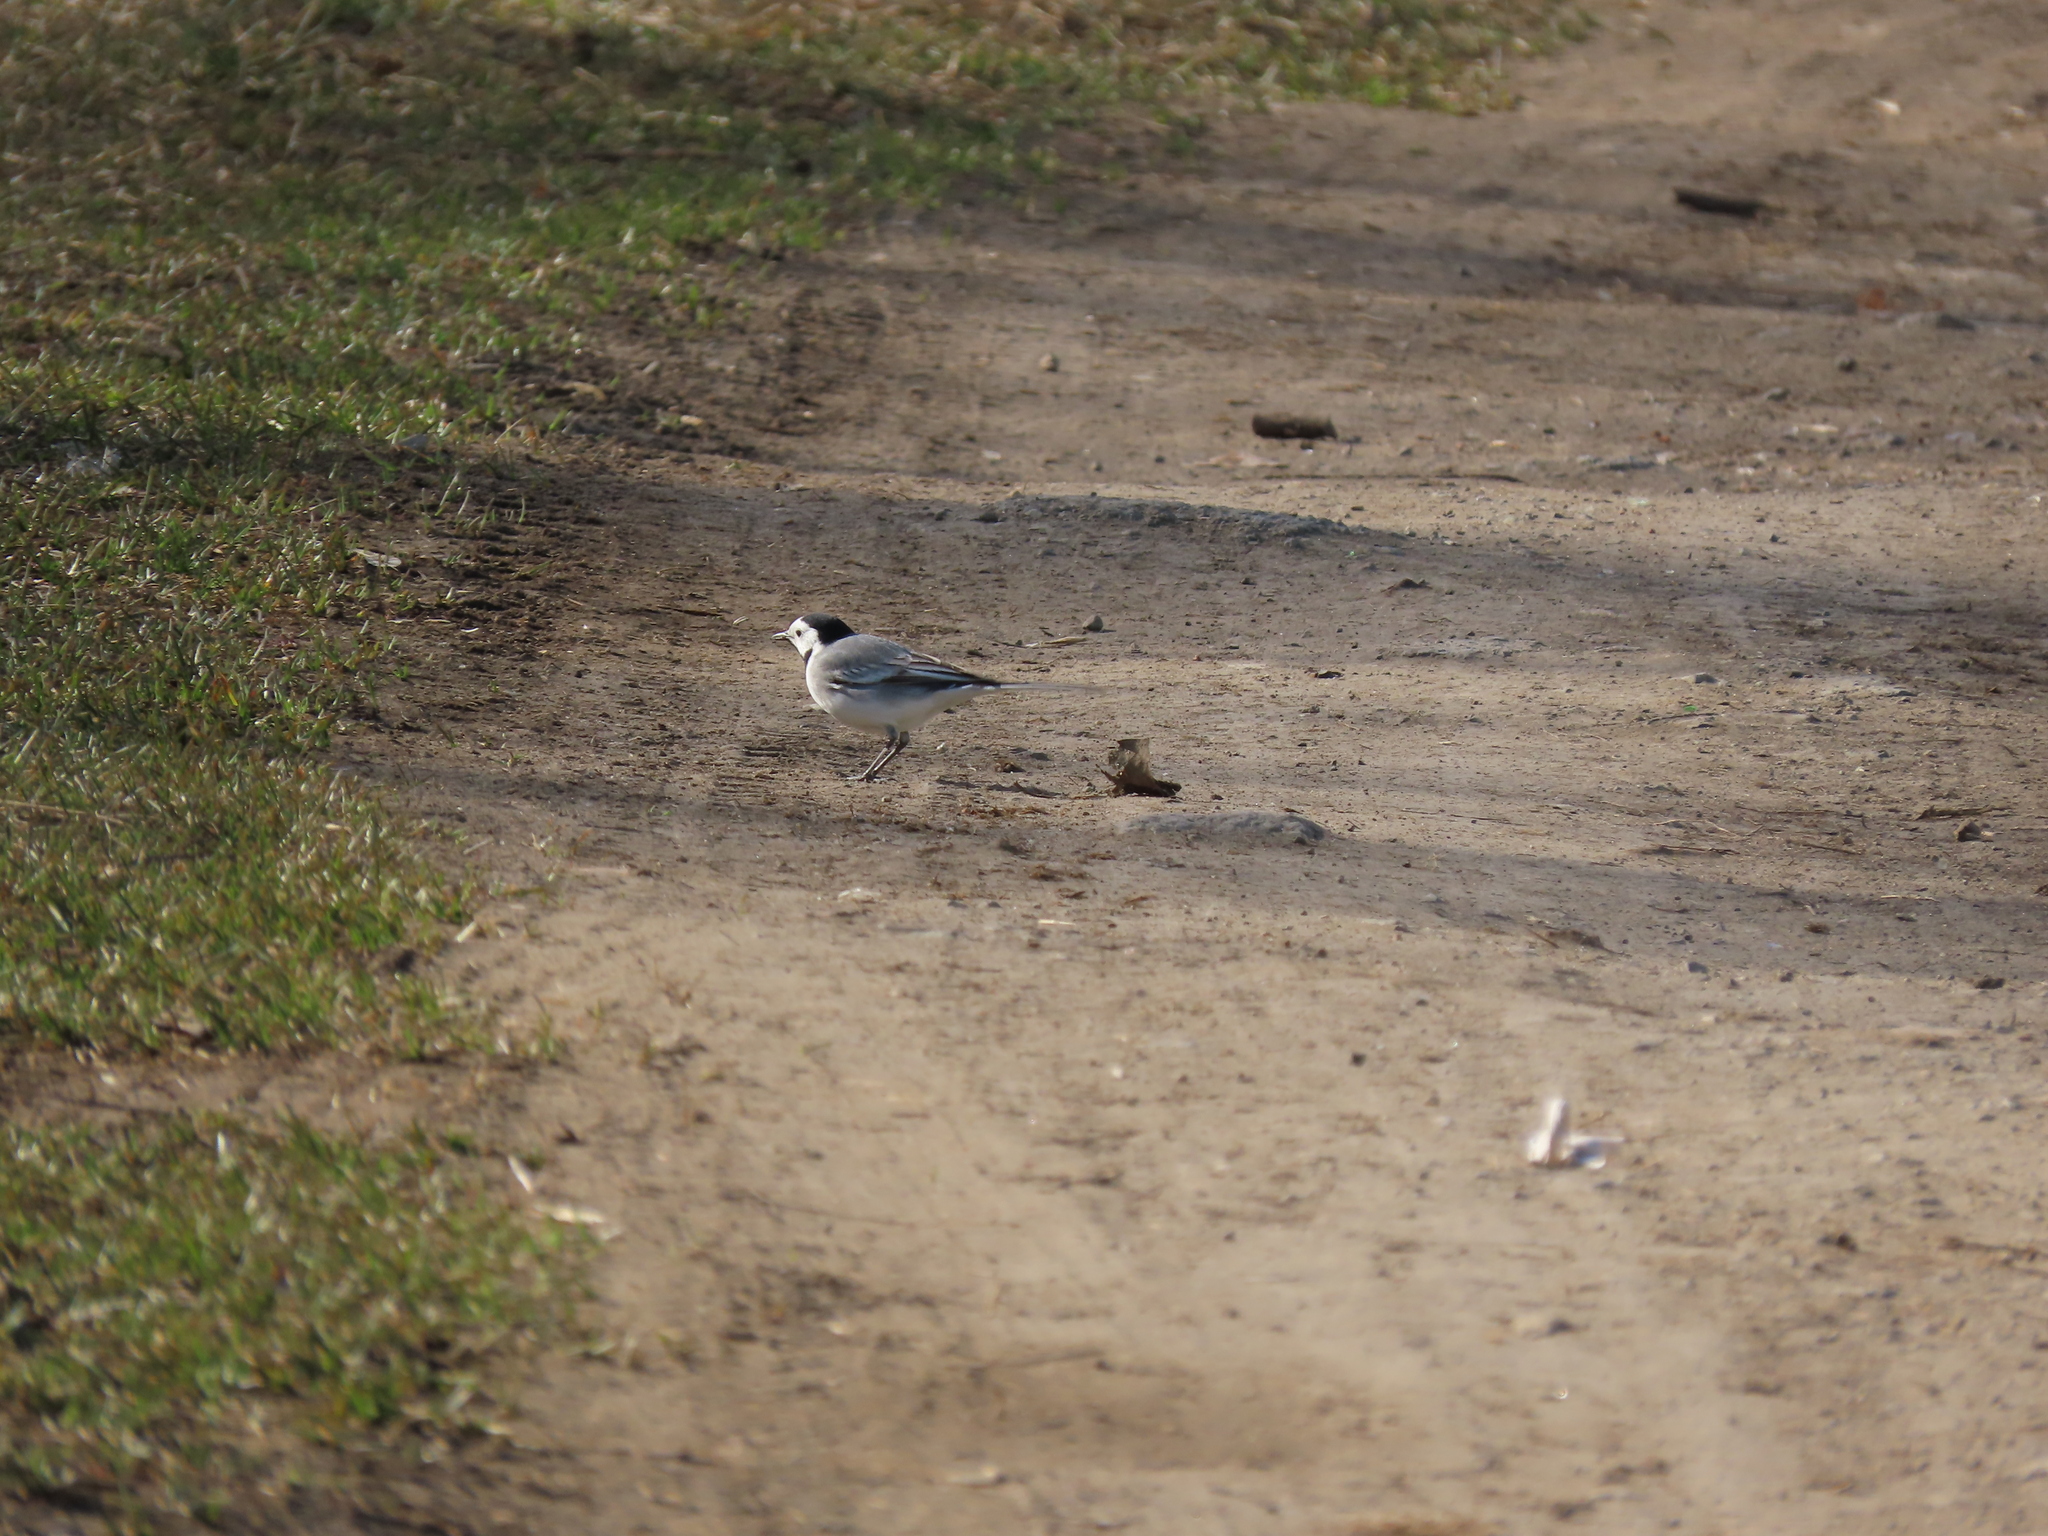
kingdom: Animalia
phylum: Chordata
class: Aves
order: Passeriformes
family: Motacillidae
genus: Motacilla
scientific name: Motacilla alba
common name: White wagtail
